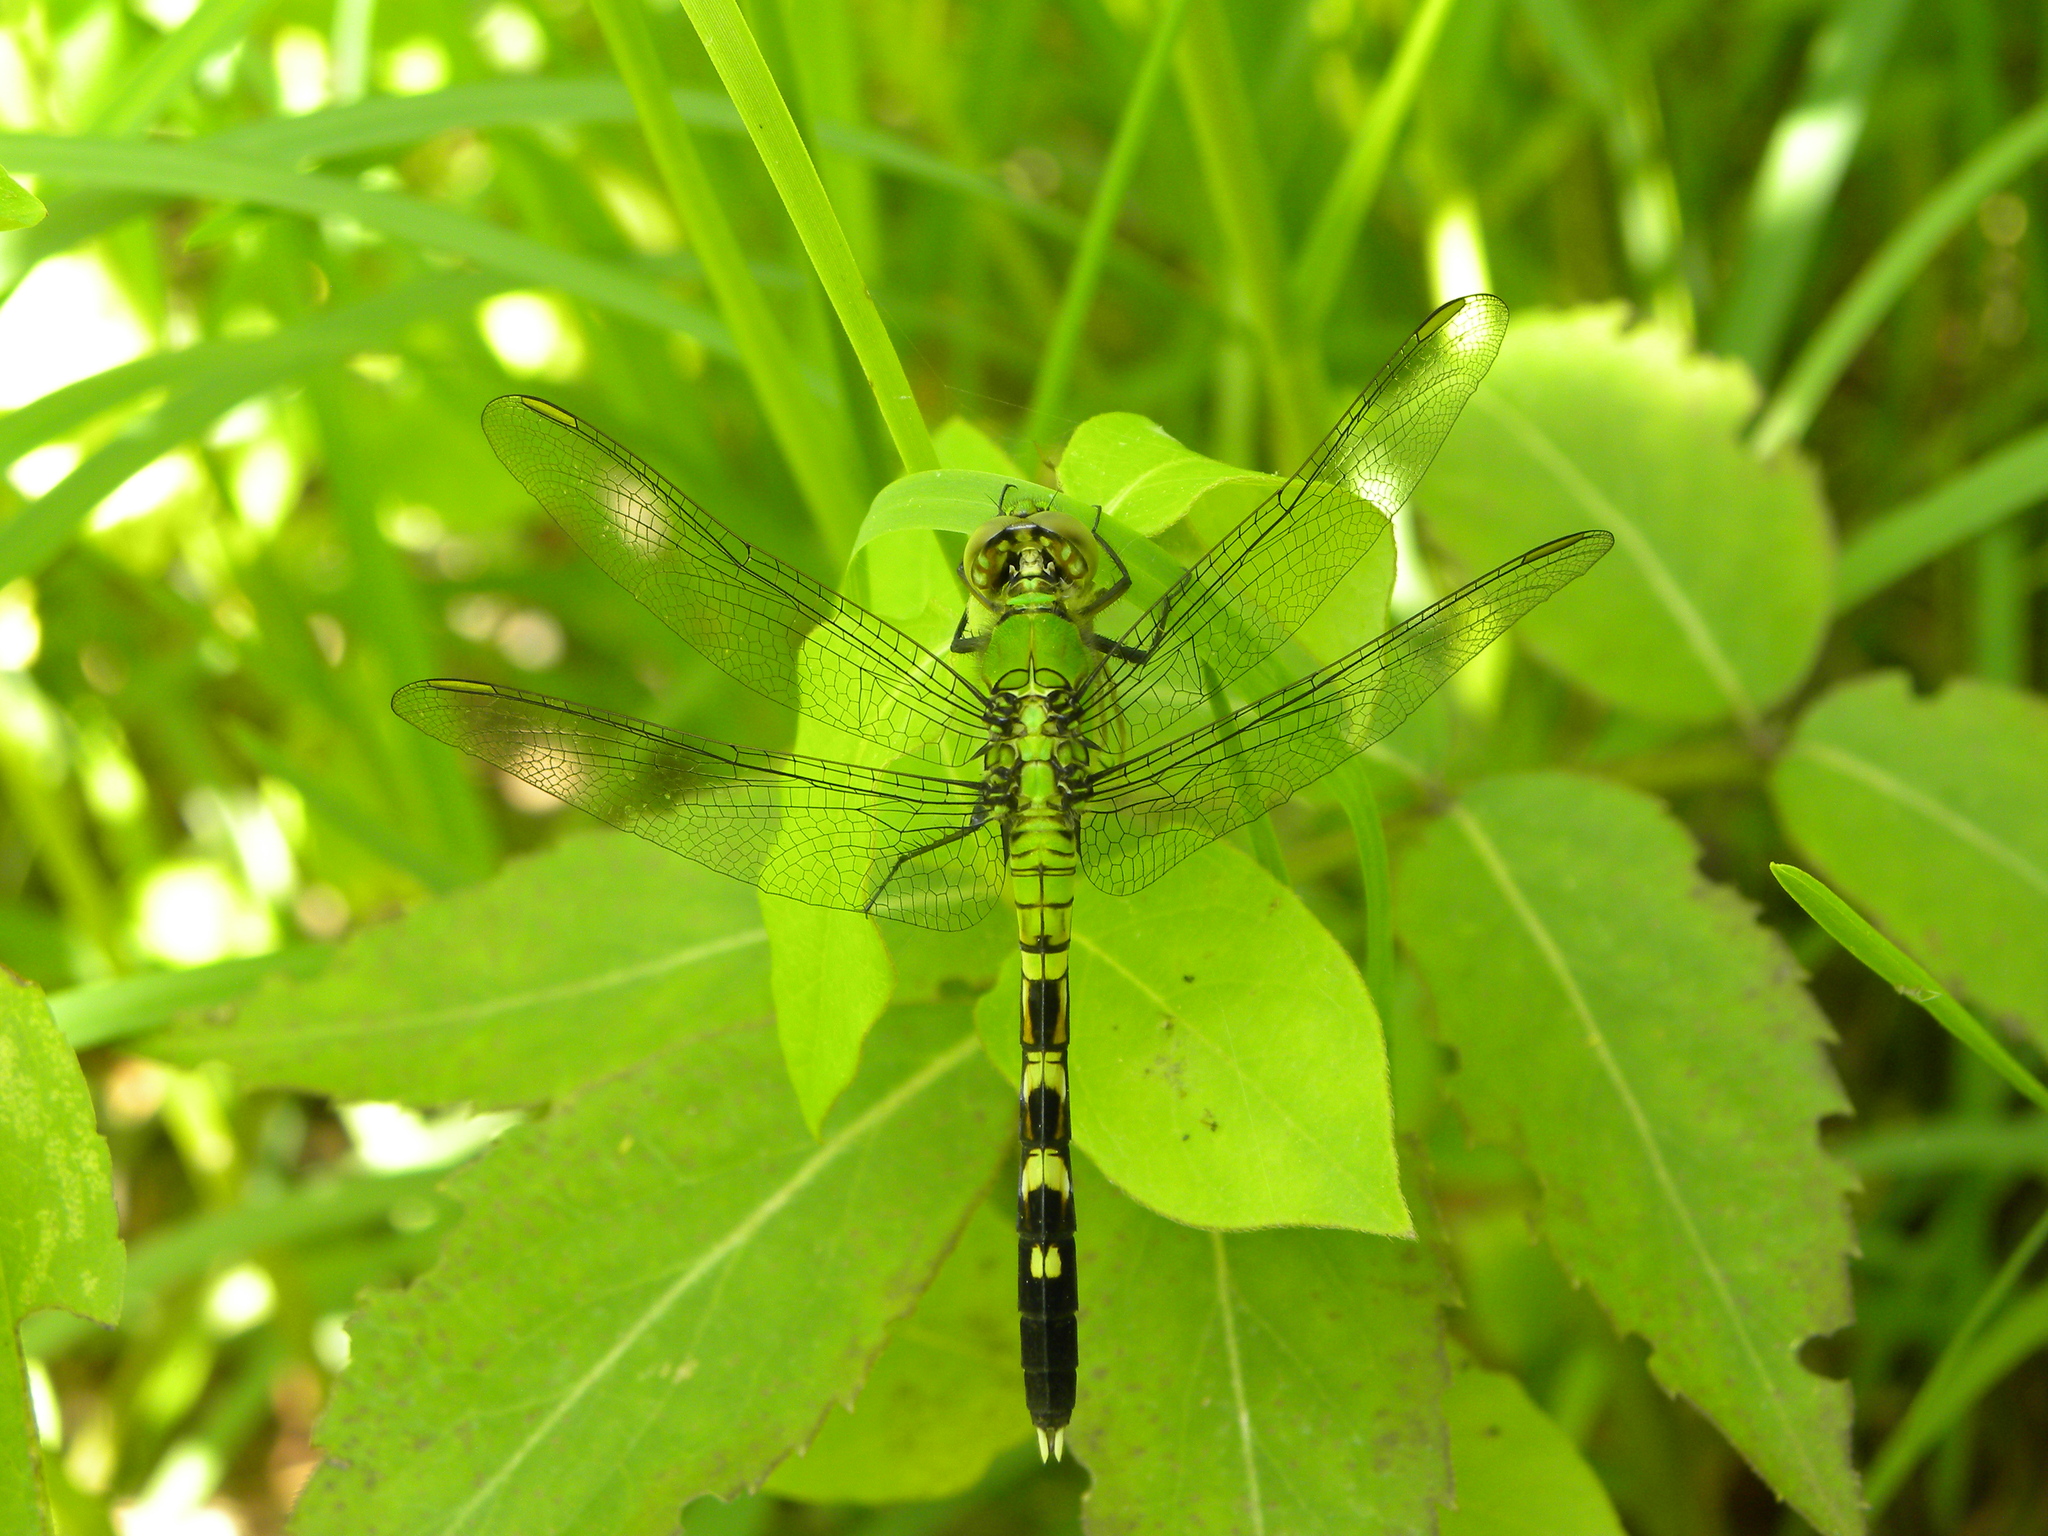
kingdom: Animalia
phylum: Arthropoda
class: Insecta
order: Odonata
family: Libellulidae
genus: Erythemis
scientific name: Erythemis simplicicollis
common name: Eastern pondhawk
